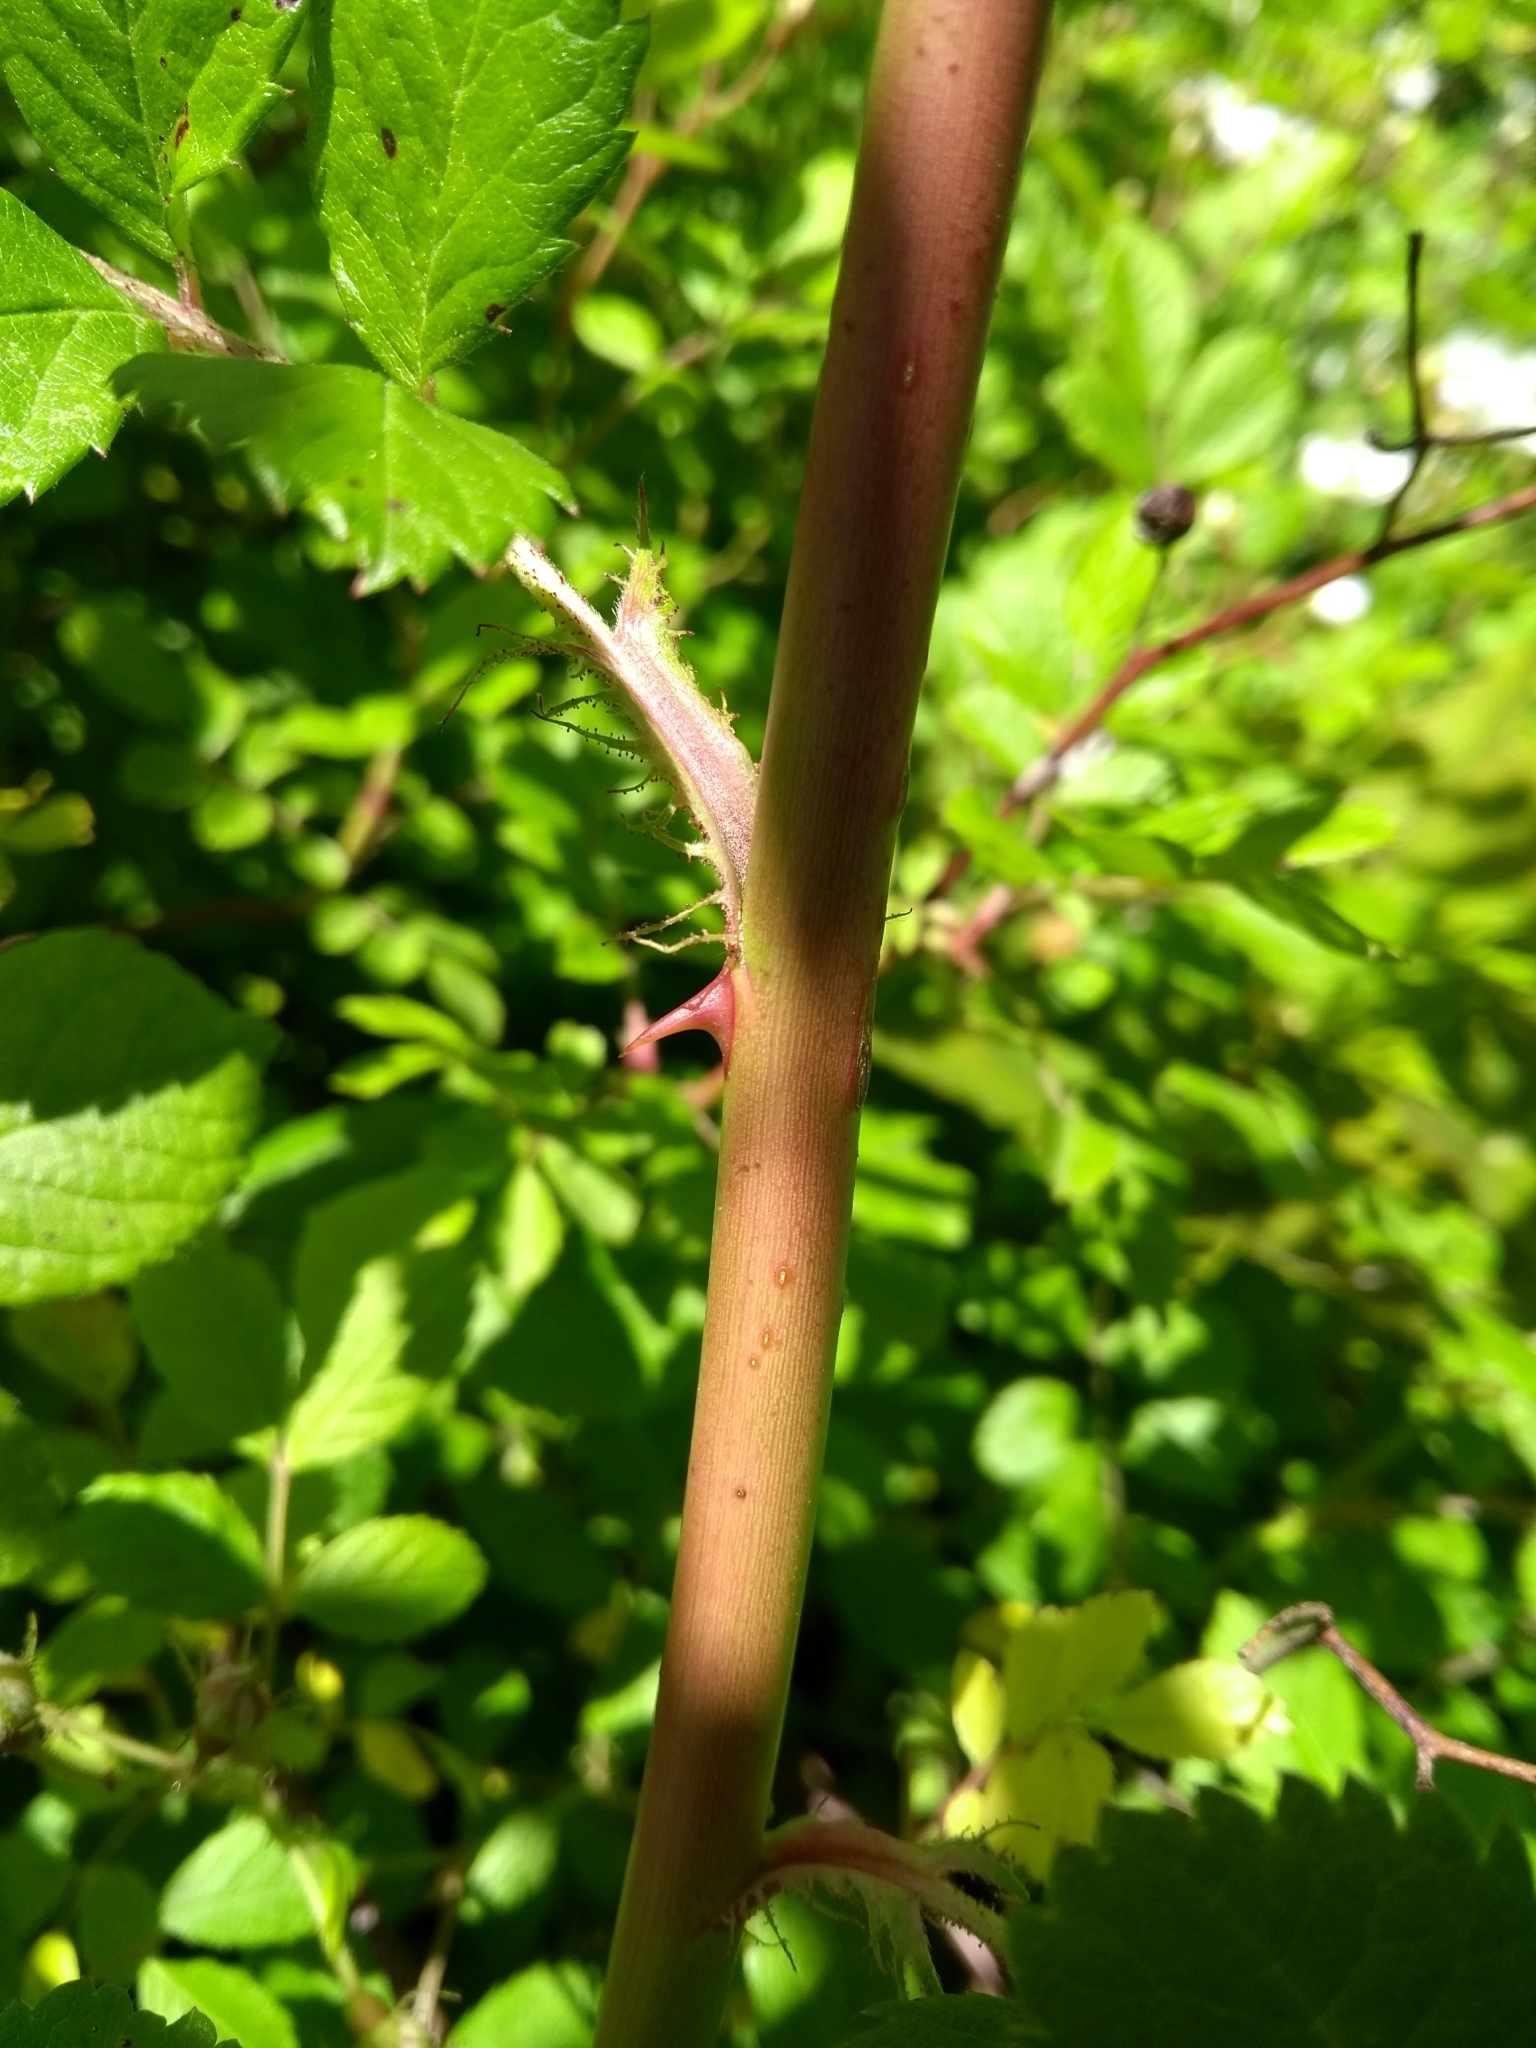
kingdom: Plantae
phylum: Tracheophyta
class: Magnoliopsida
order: Rosales
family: Rosaceae
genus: Rosa
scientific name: Rosa multiflora
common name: Multiflora rose
